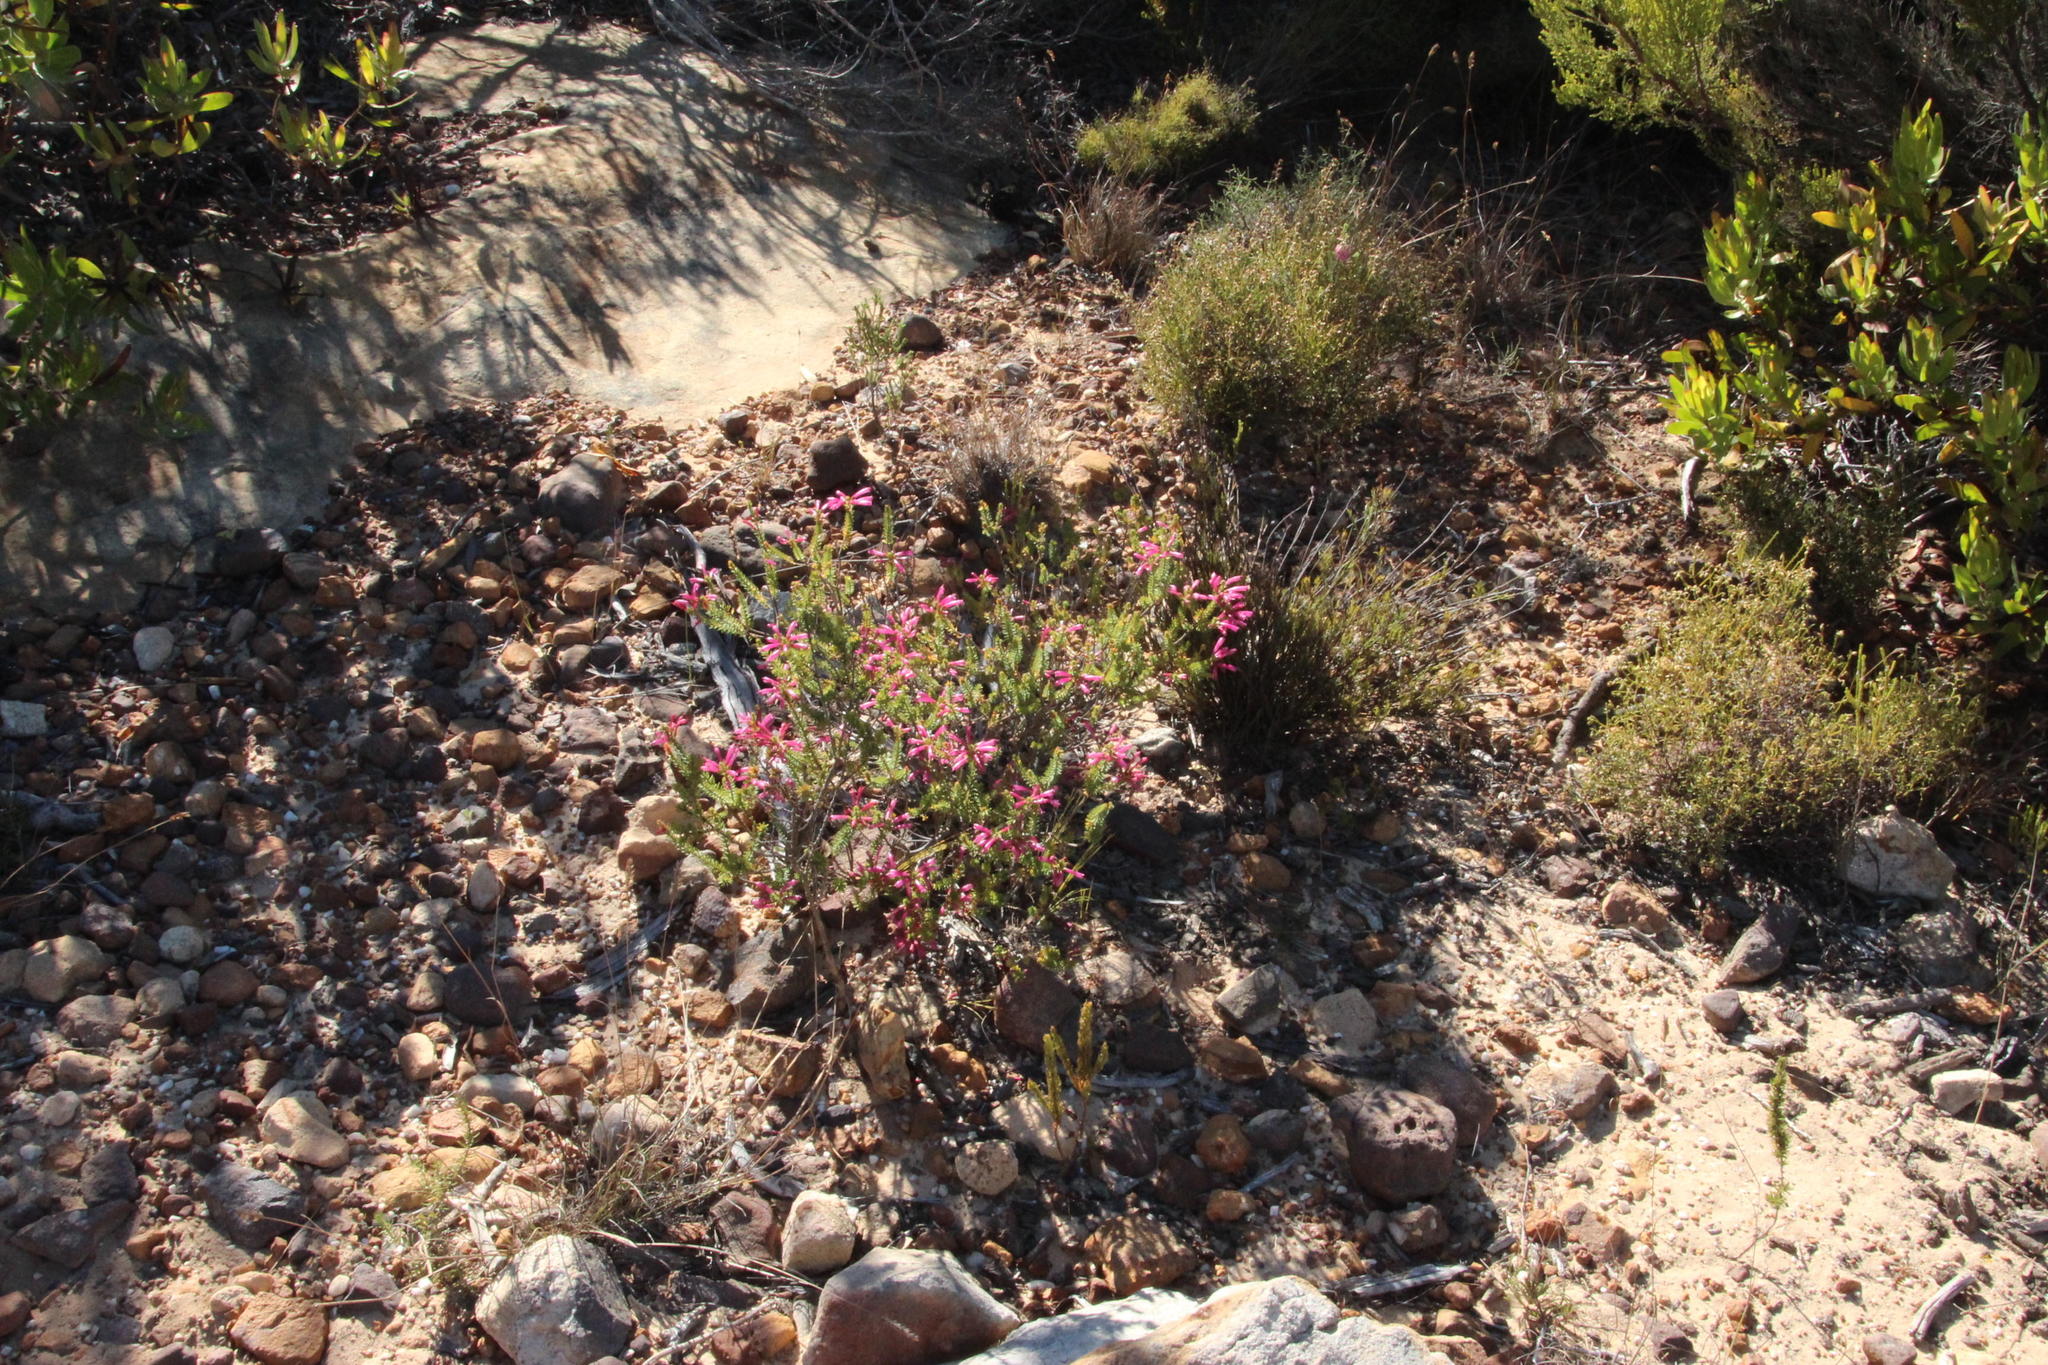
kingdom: Plantae
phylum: Tracheophyta
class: Magnoliopsida
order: Ericales
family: Ericaceae
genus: Erica
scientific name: Erica abietina
